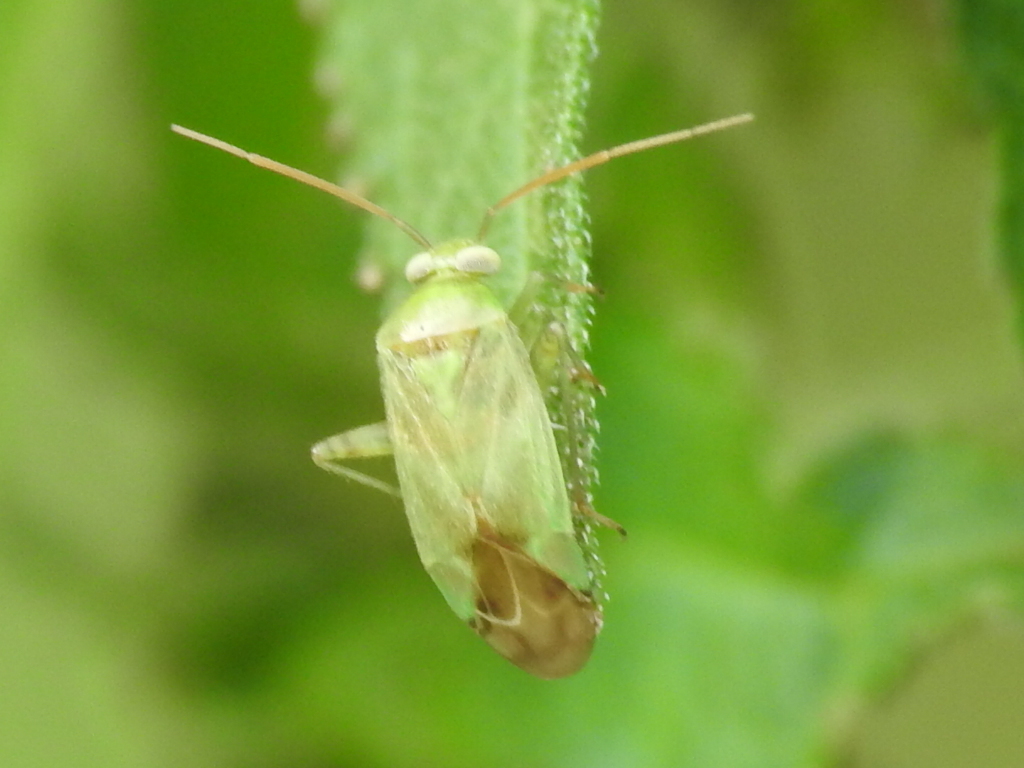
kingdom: Animalia
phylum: Arthropoda
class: Insecta
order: Hemiptera
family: Miridae
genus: Taylorilygus
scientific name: Taylorilygus apicalis
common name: Plant bug
